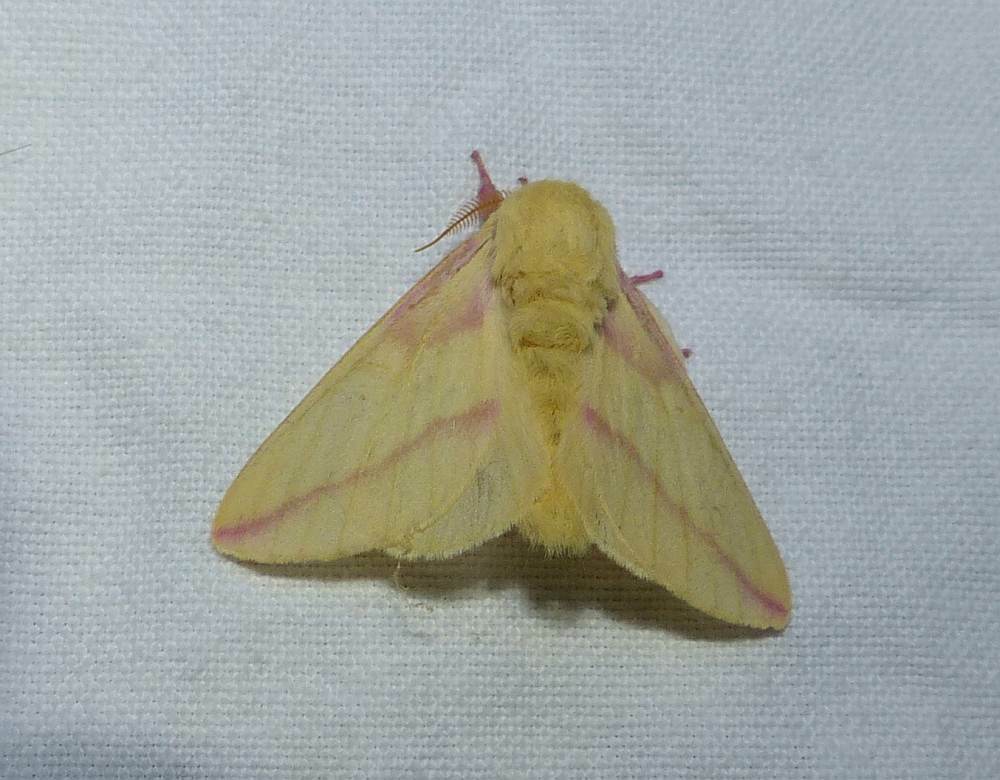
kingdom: Animalia
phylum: Arthropoda
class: Insecta
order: Lepidoptera
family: Saturniidae
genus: Dryocampa
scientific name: Dryocampa rubicunda
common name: Rosy maple moth
